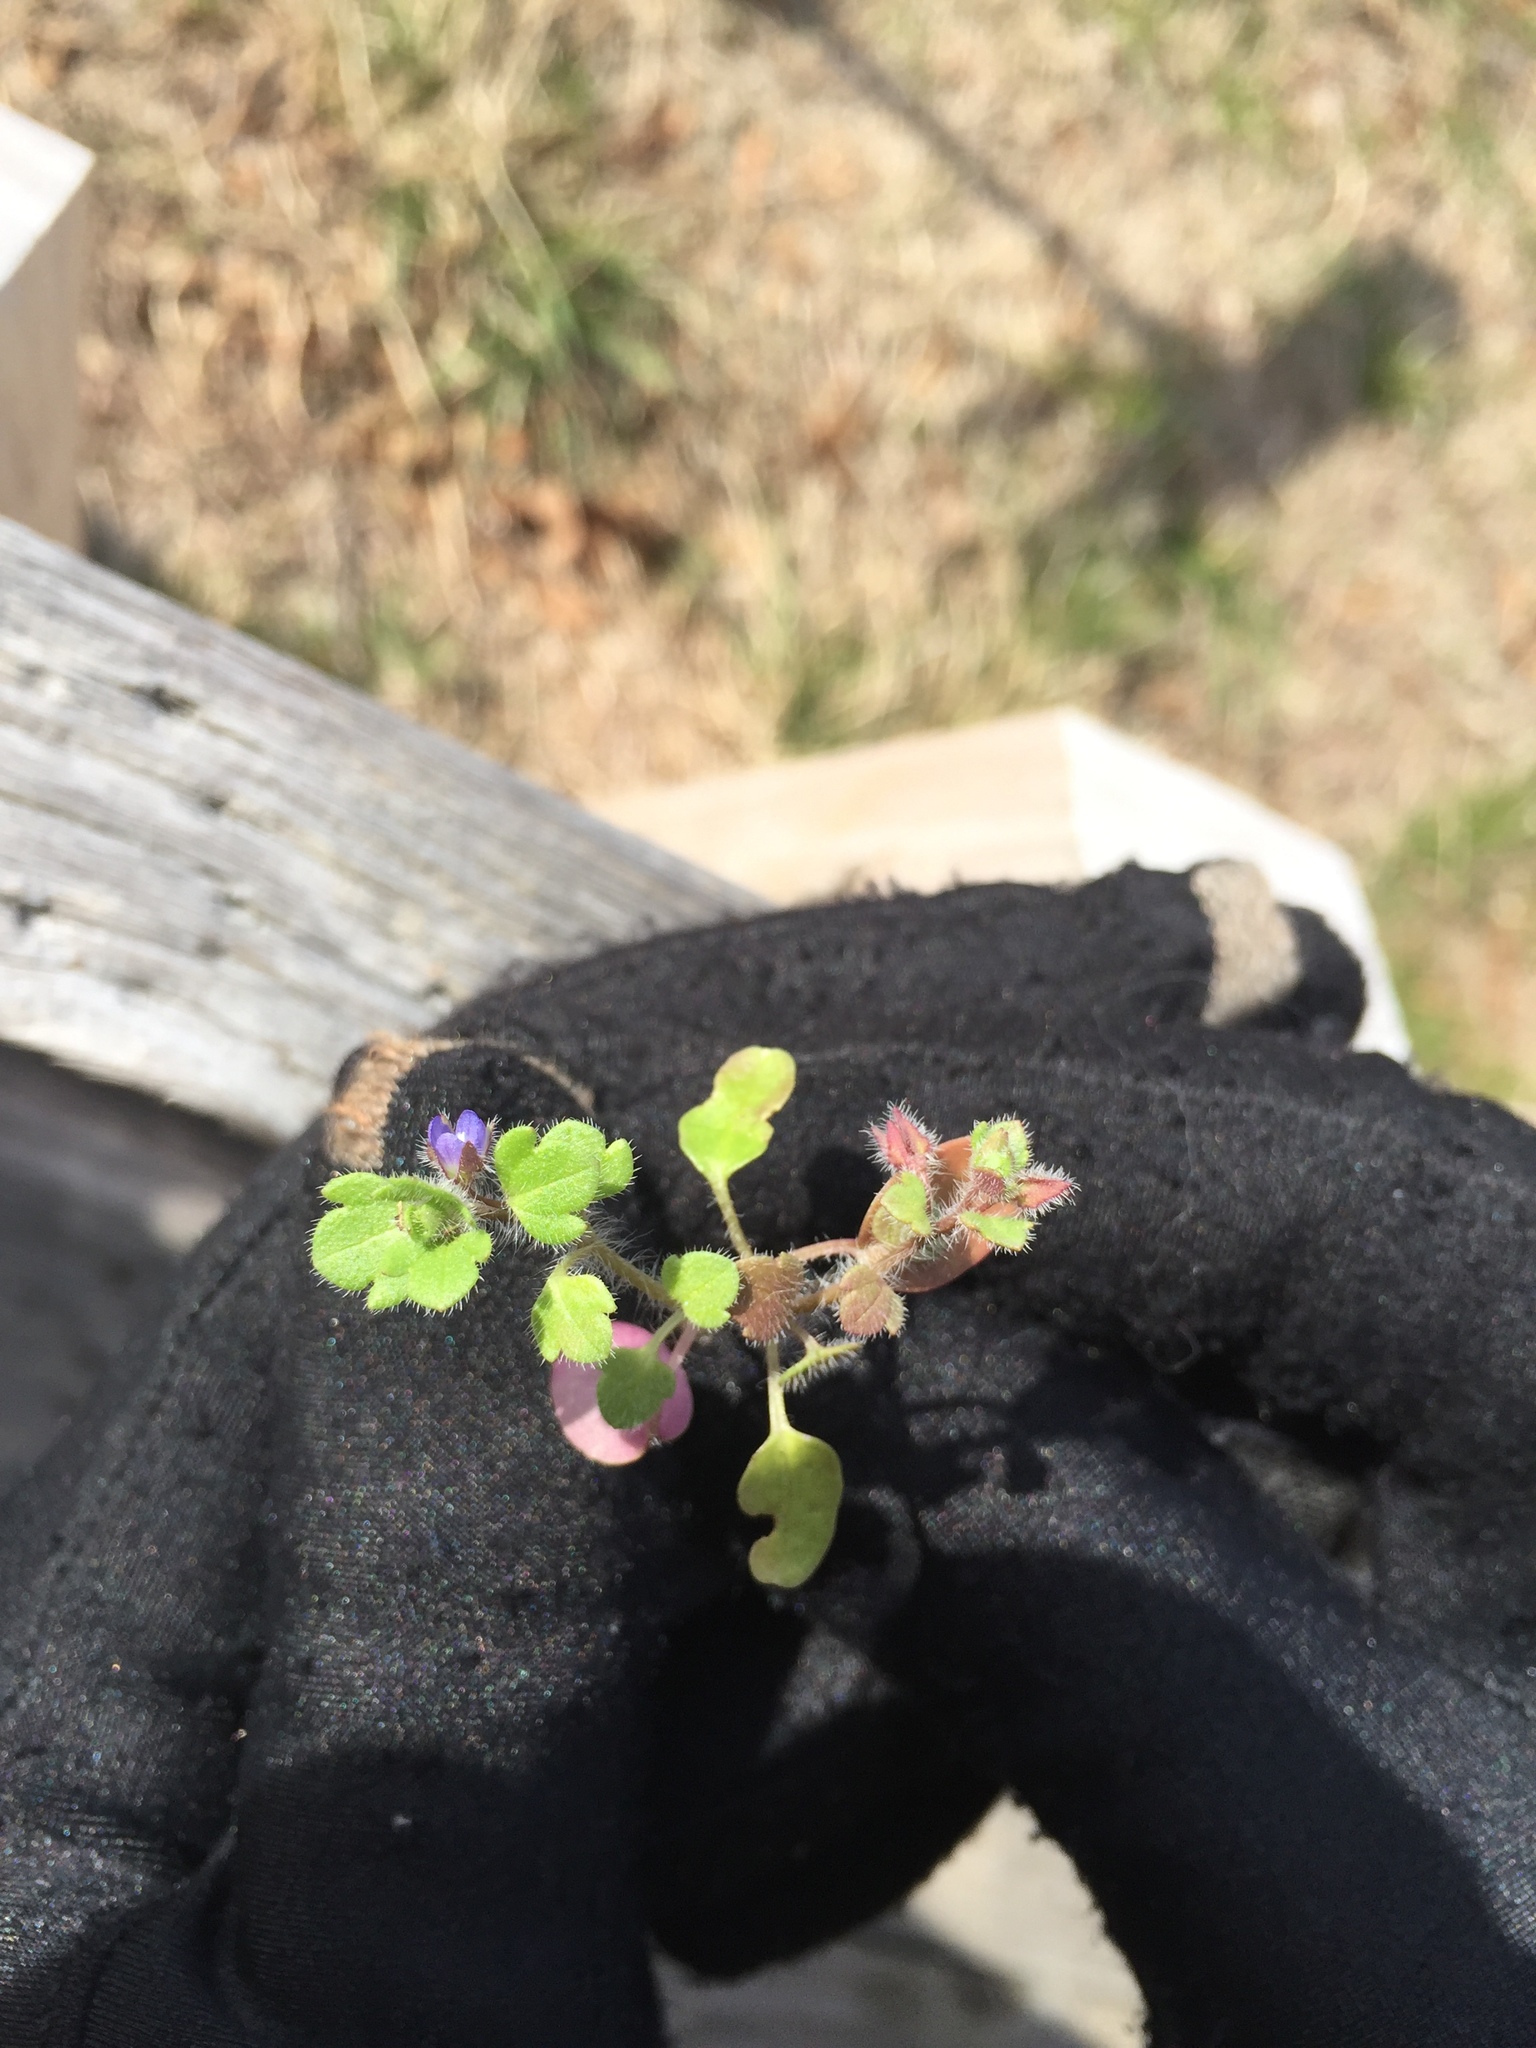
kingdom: Plantae
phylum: Tracheophyta
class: Magnoliopsida
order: Lamiales
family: Plantaginaceae
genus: Veronica
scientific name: Veronica hederifolia
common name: Ivy-leaved speedwell
